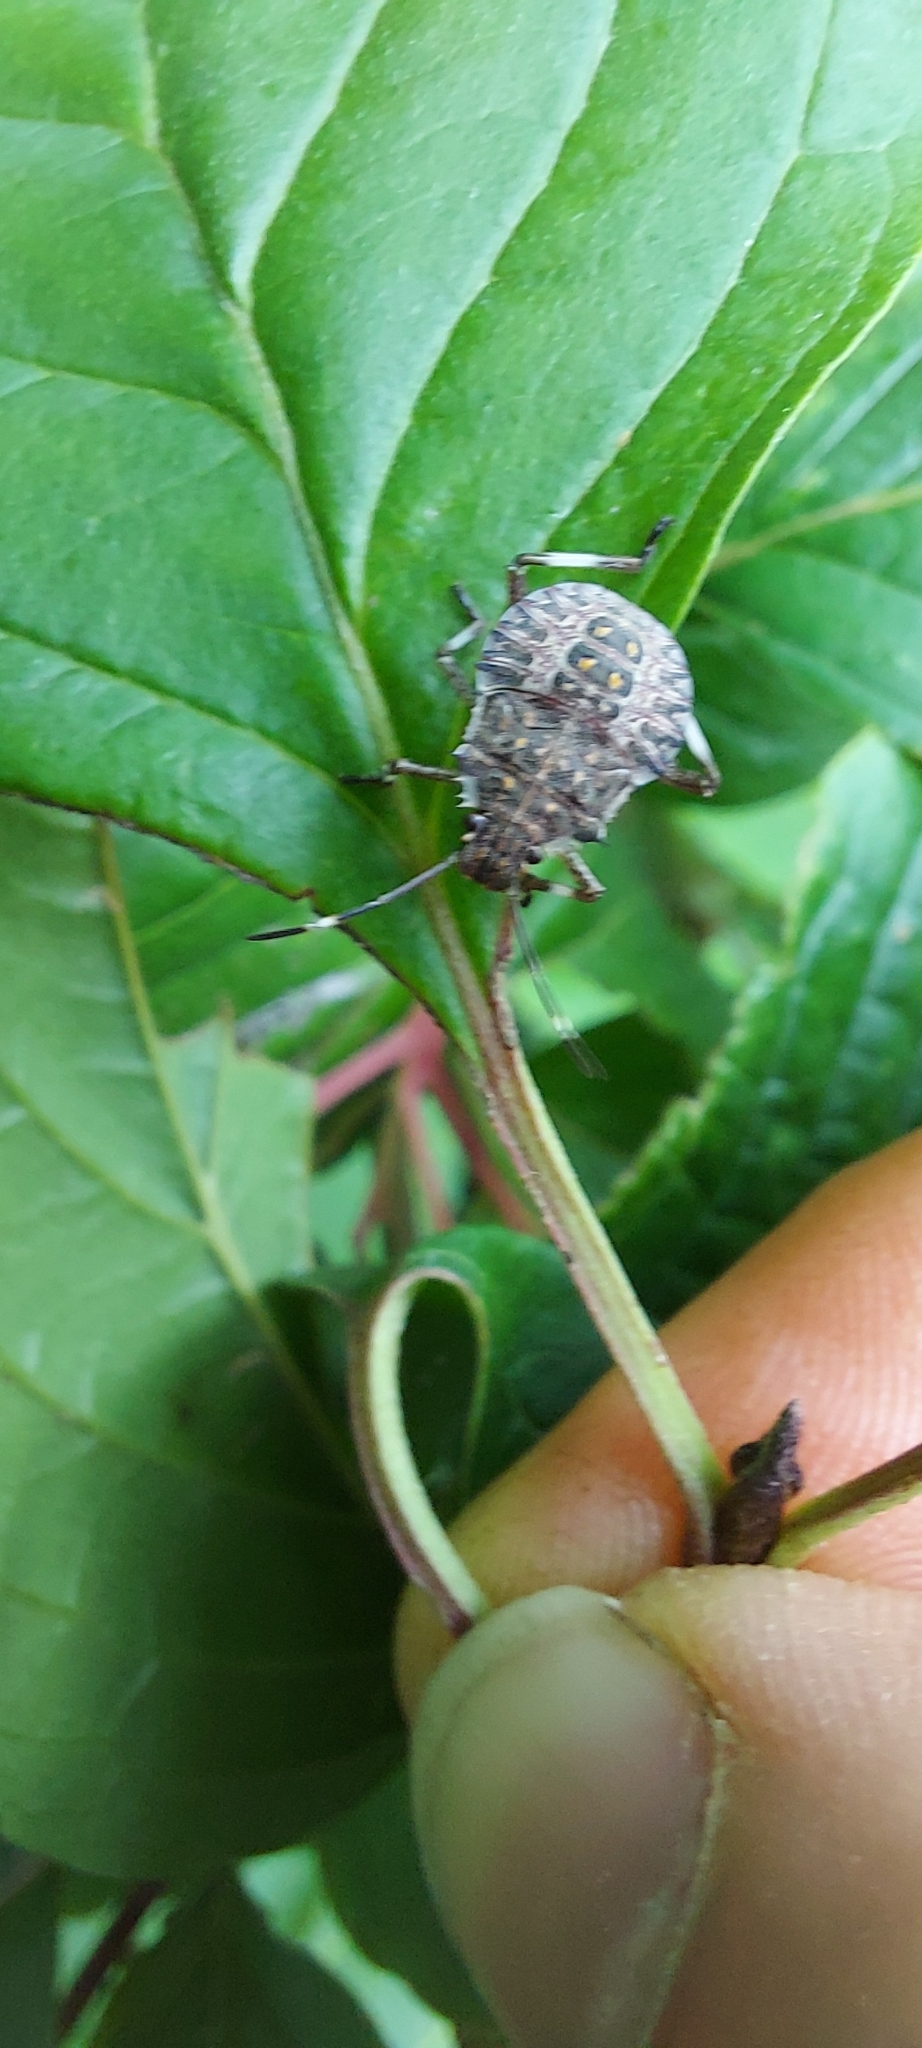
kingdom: Animalia
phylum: Arthropoda
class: Insecta
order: Hemiptera
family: Pentatomidae
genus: Halyomorpha
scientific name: Halyomorpha halys
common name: Brown marmorated stink bug
